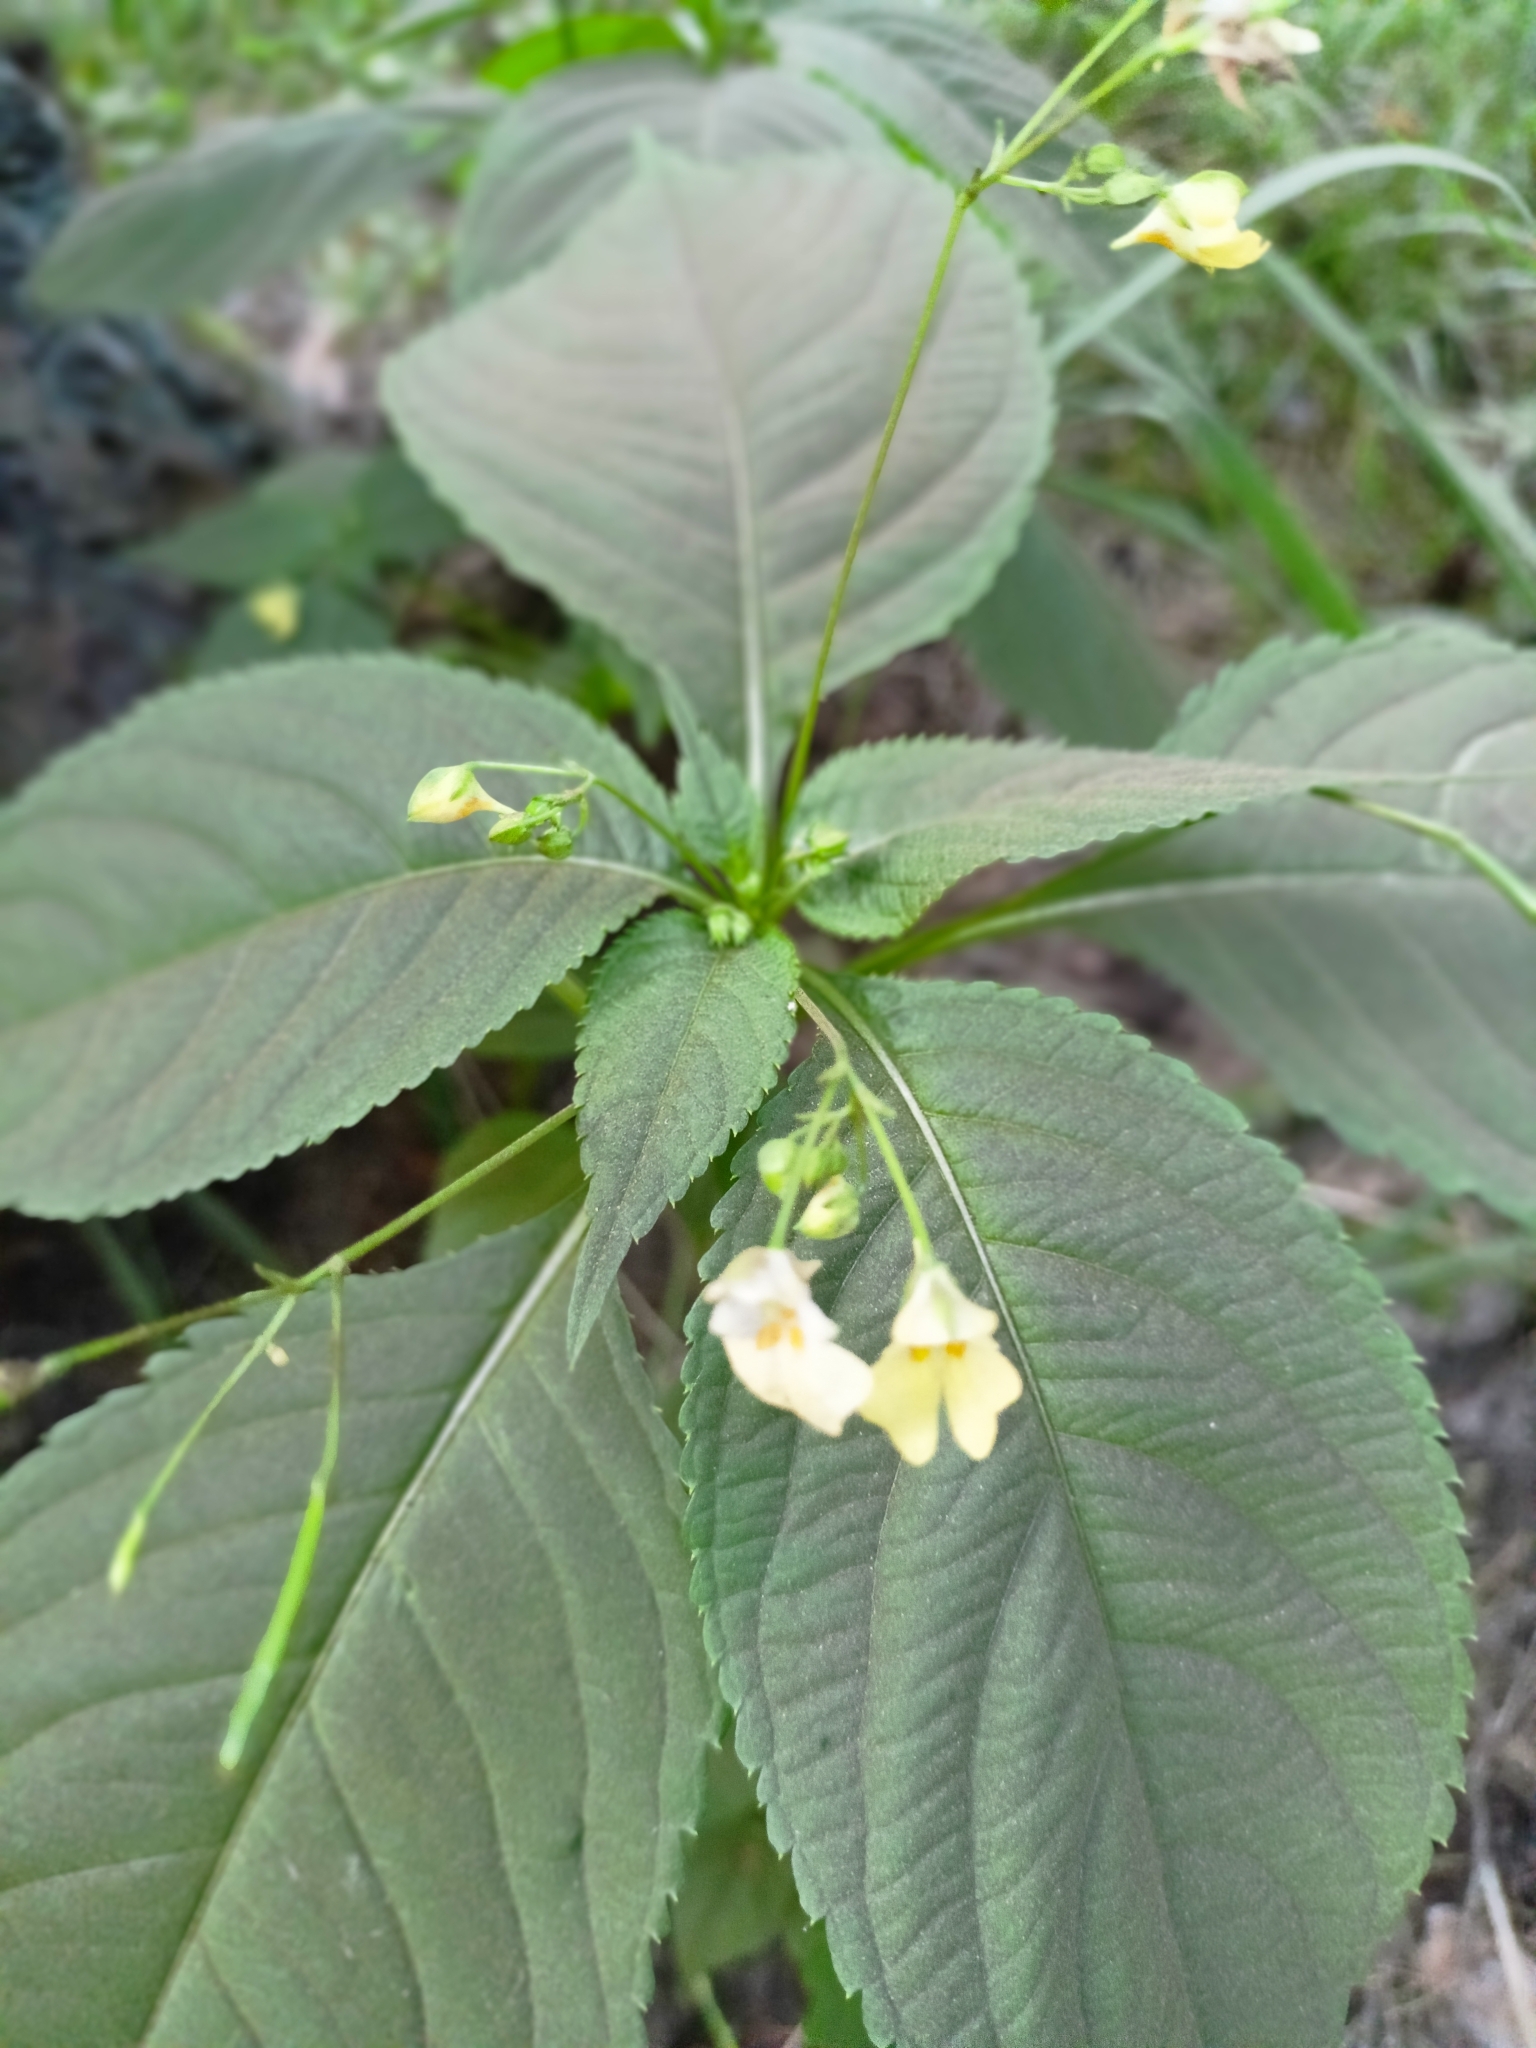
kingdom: Plantae
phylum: Tracheophyta
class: Magnoliopsida
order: Ericales
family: Balsaminaceae
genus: Impatiens
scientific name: Impatiens parviflora
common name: Small balsam
